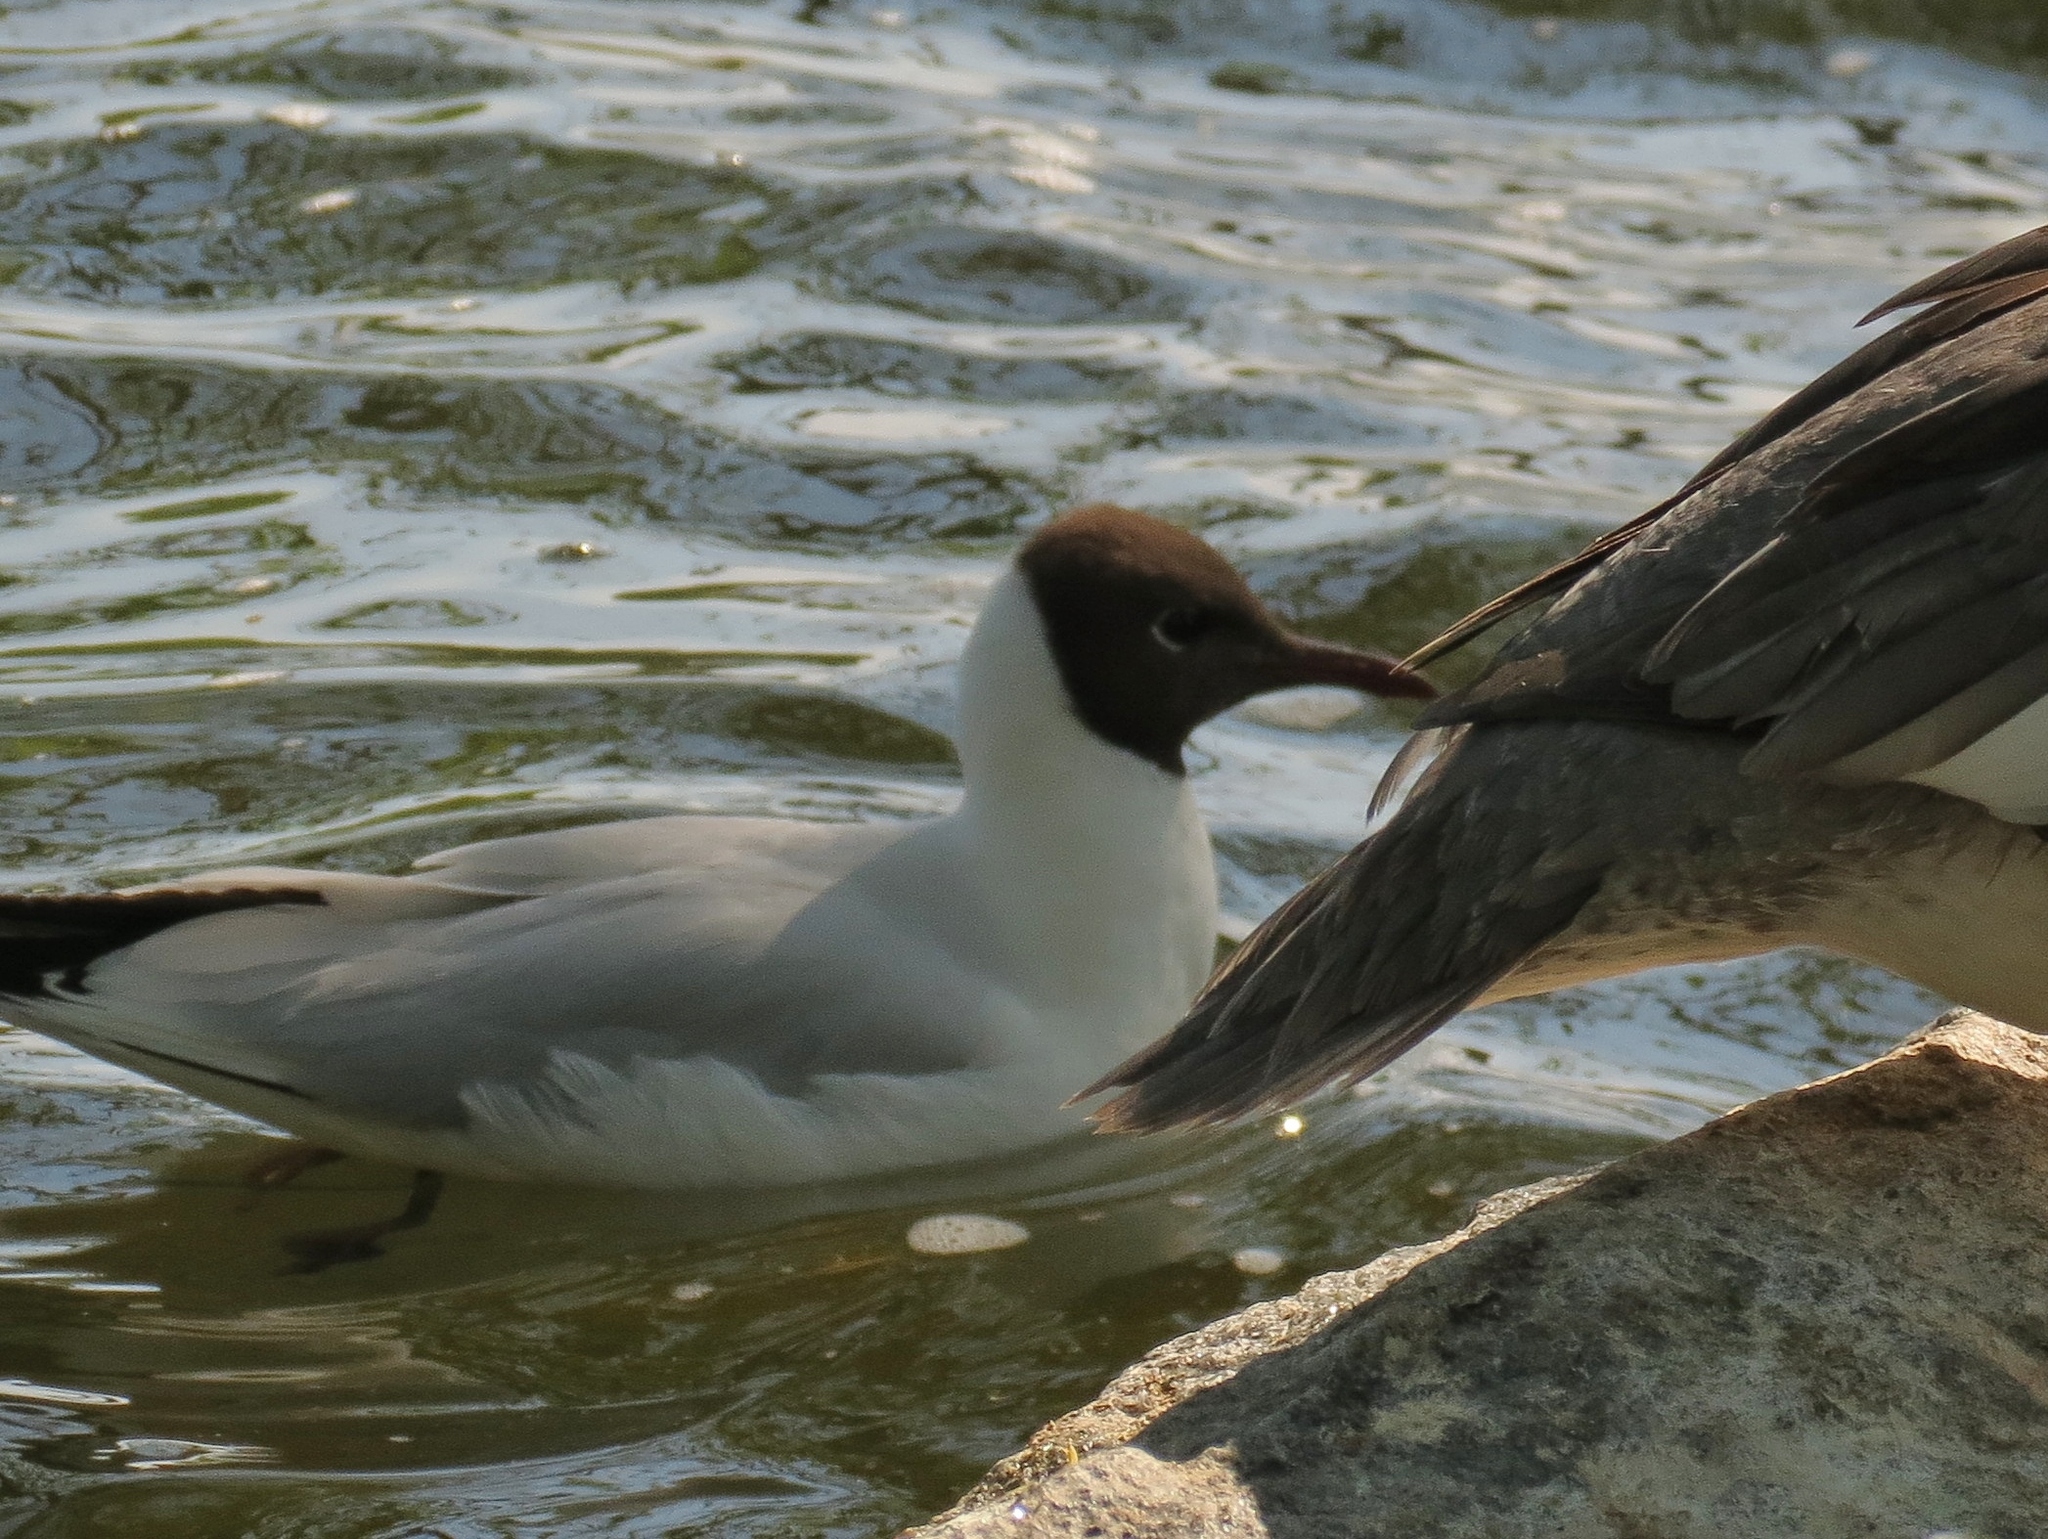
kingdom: Animalia
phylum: Chordata
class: Aves
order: Charadriiformes
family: Laridae
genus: Chroicocephalus
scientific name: Chroicocephalus ridibundus
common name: Black-headed gull
